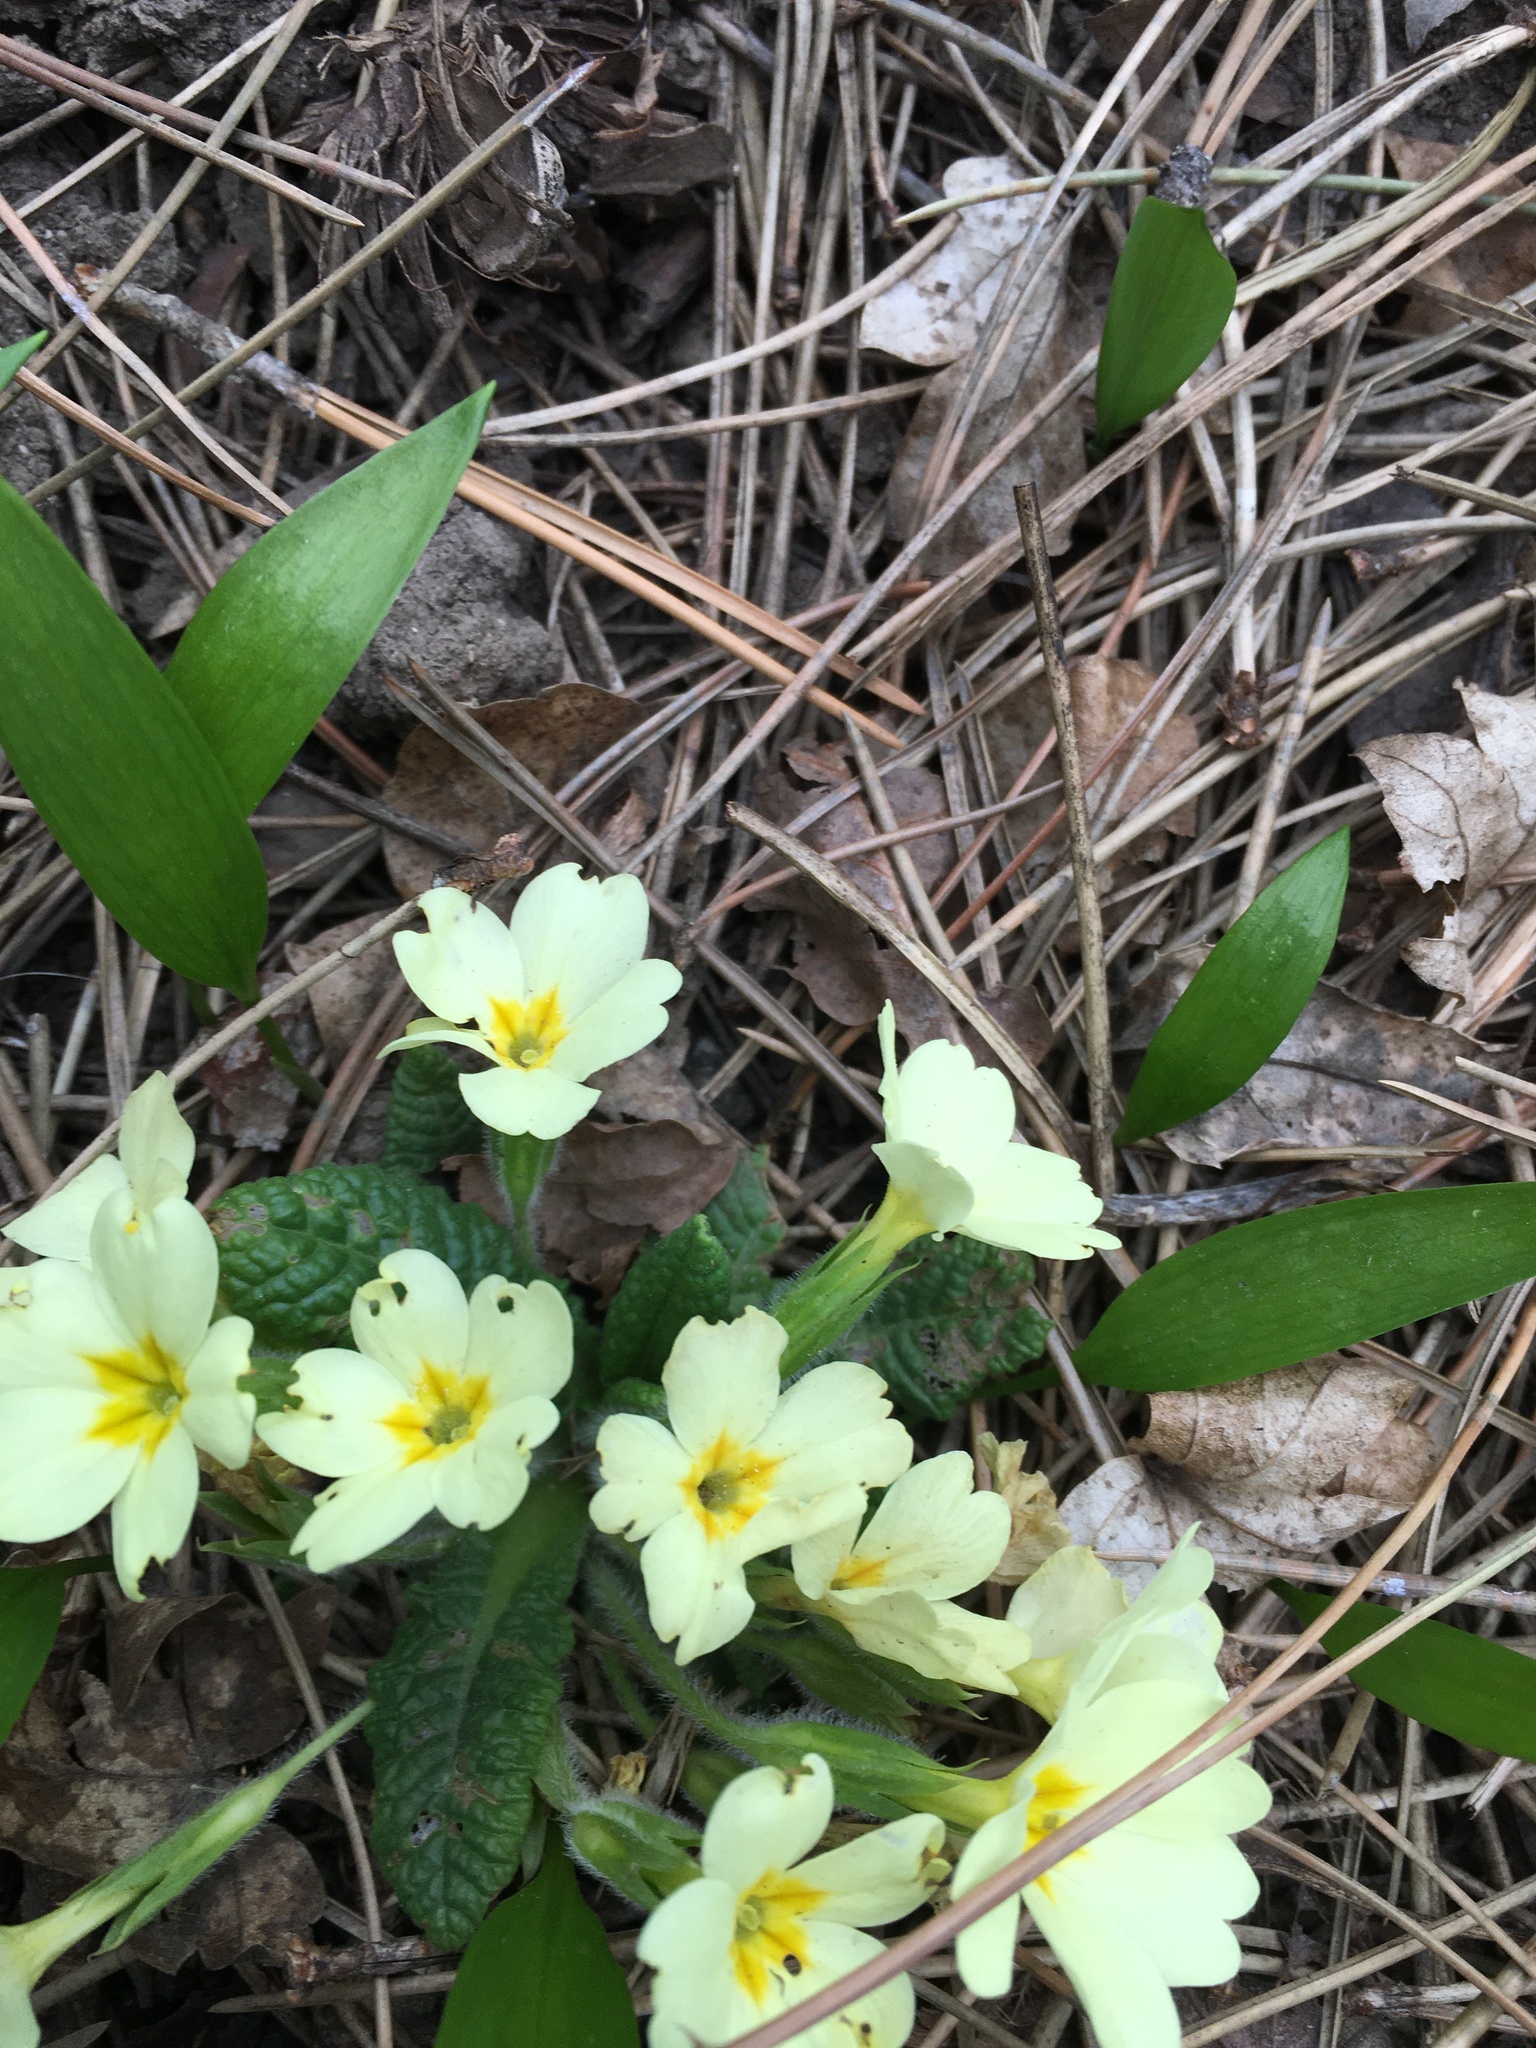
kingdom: Plantae
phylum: Tracheophyta
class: Magnoliopsida
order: Ericales
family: Primulaceae
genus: Primula
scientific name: Primula vulgaris
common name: Primrose
